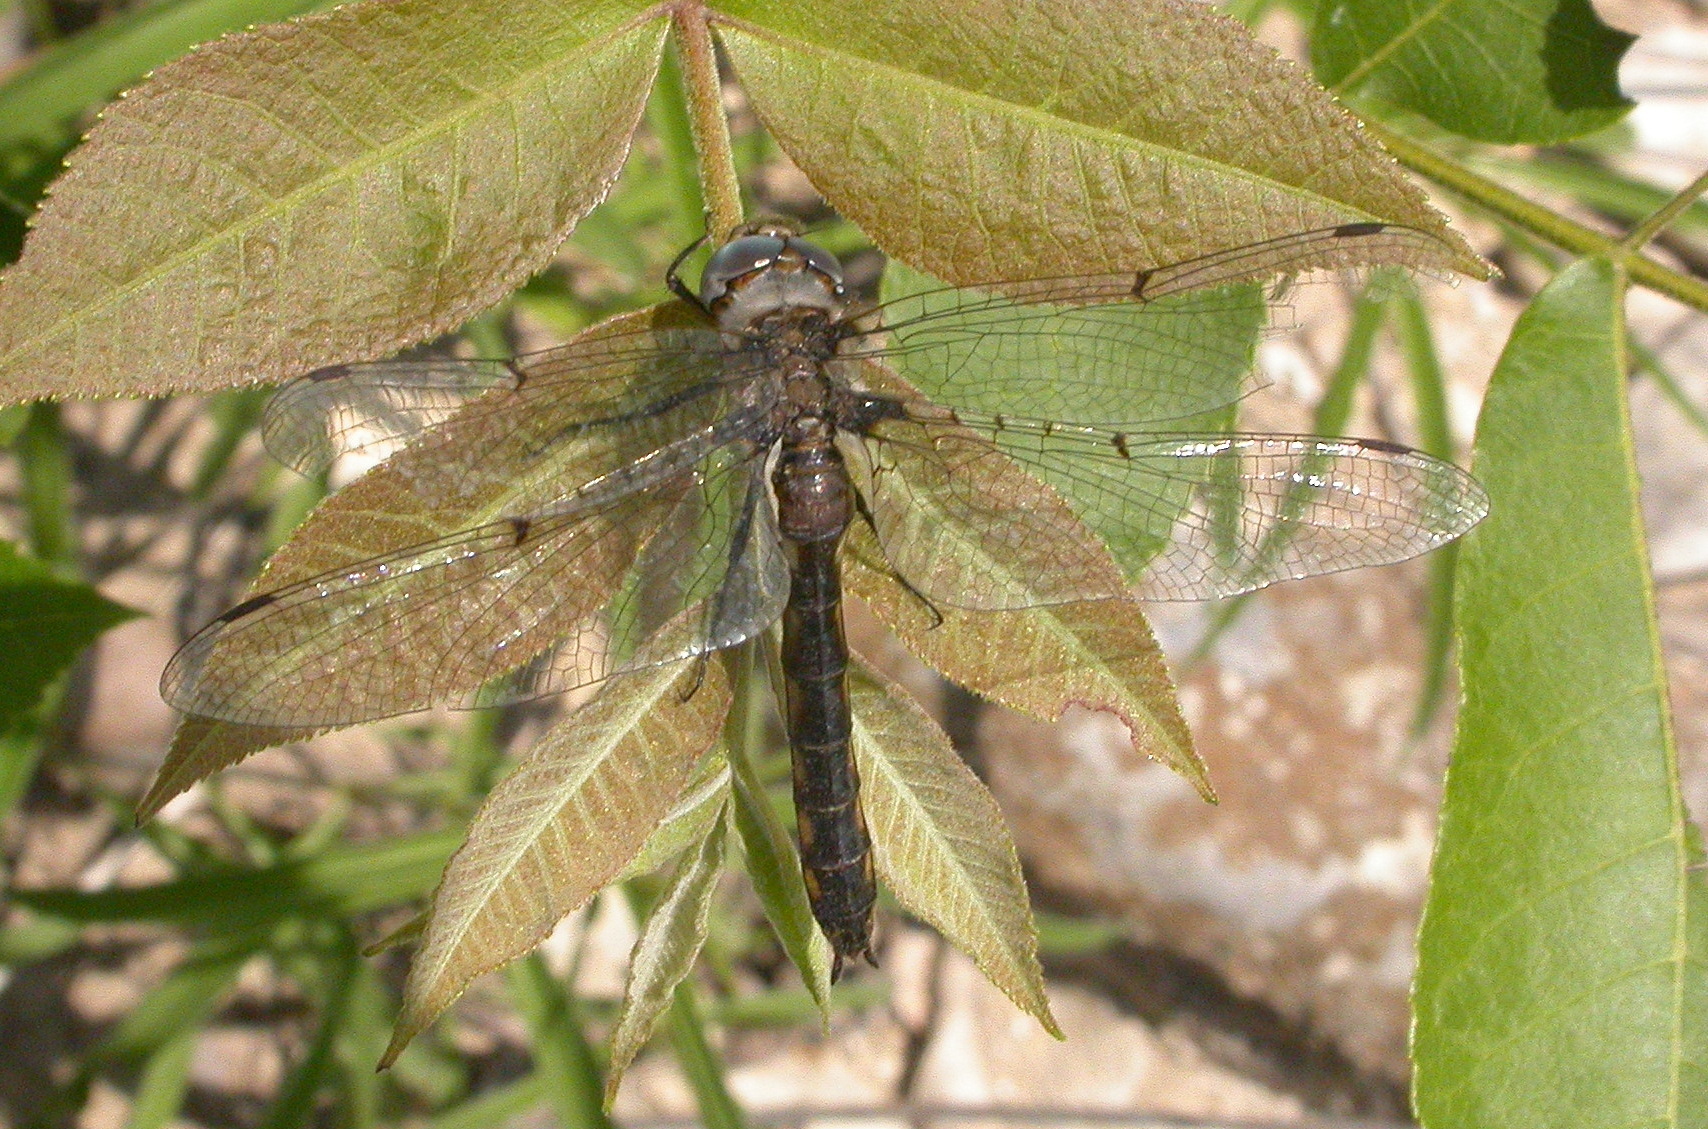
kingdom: Animalia
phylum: Arthropoda
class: Insecta
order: Odonata
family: Corduliidae
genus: Epitheca
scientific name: Epitheca petechialis
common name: Dot-winged baskettail
